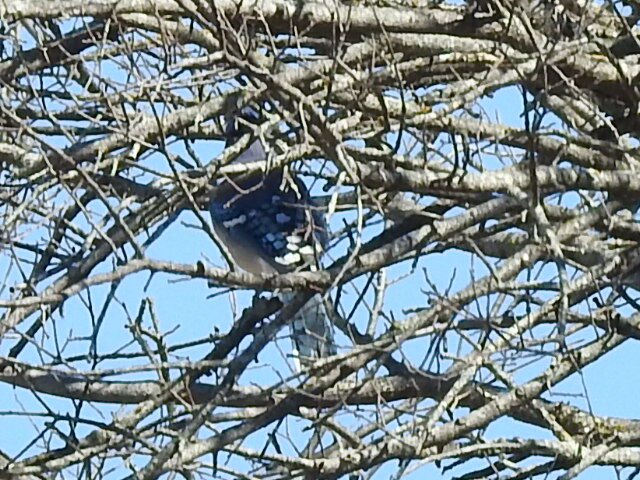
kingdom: Animalia
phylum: Chordata
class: Aves
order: Passeriformes
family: Corvidae
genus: Cyanocitta
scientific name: Cyanocitta cristata
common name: Blue jay
